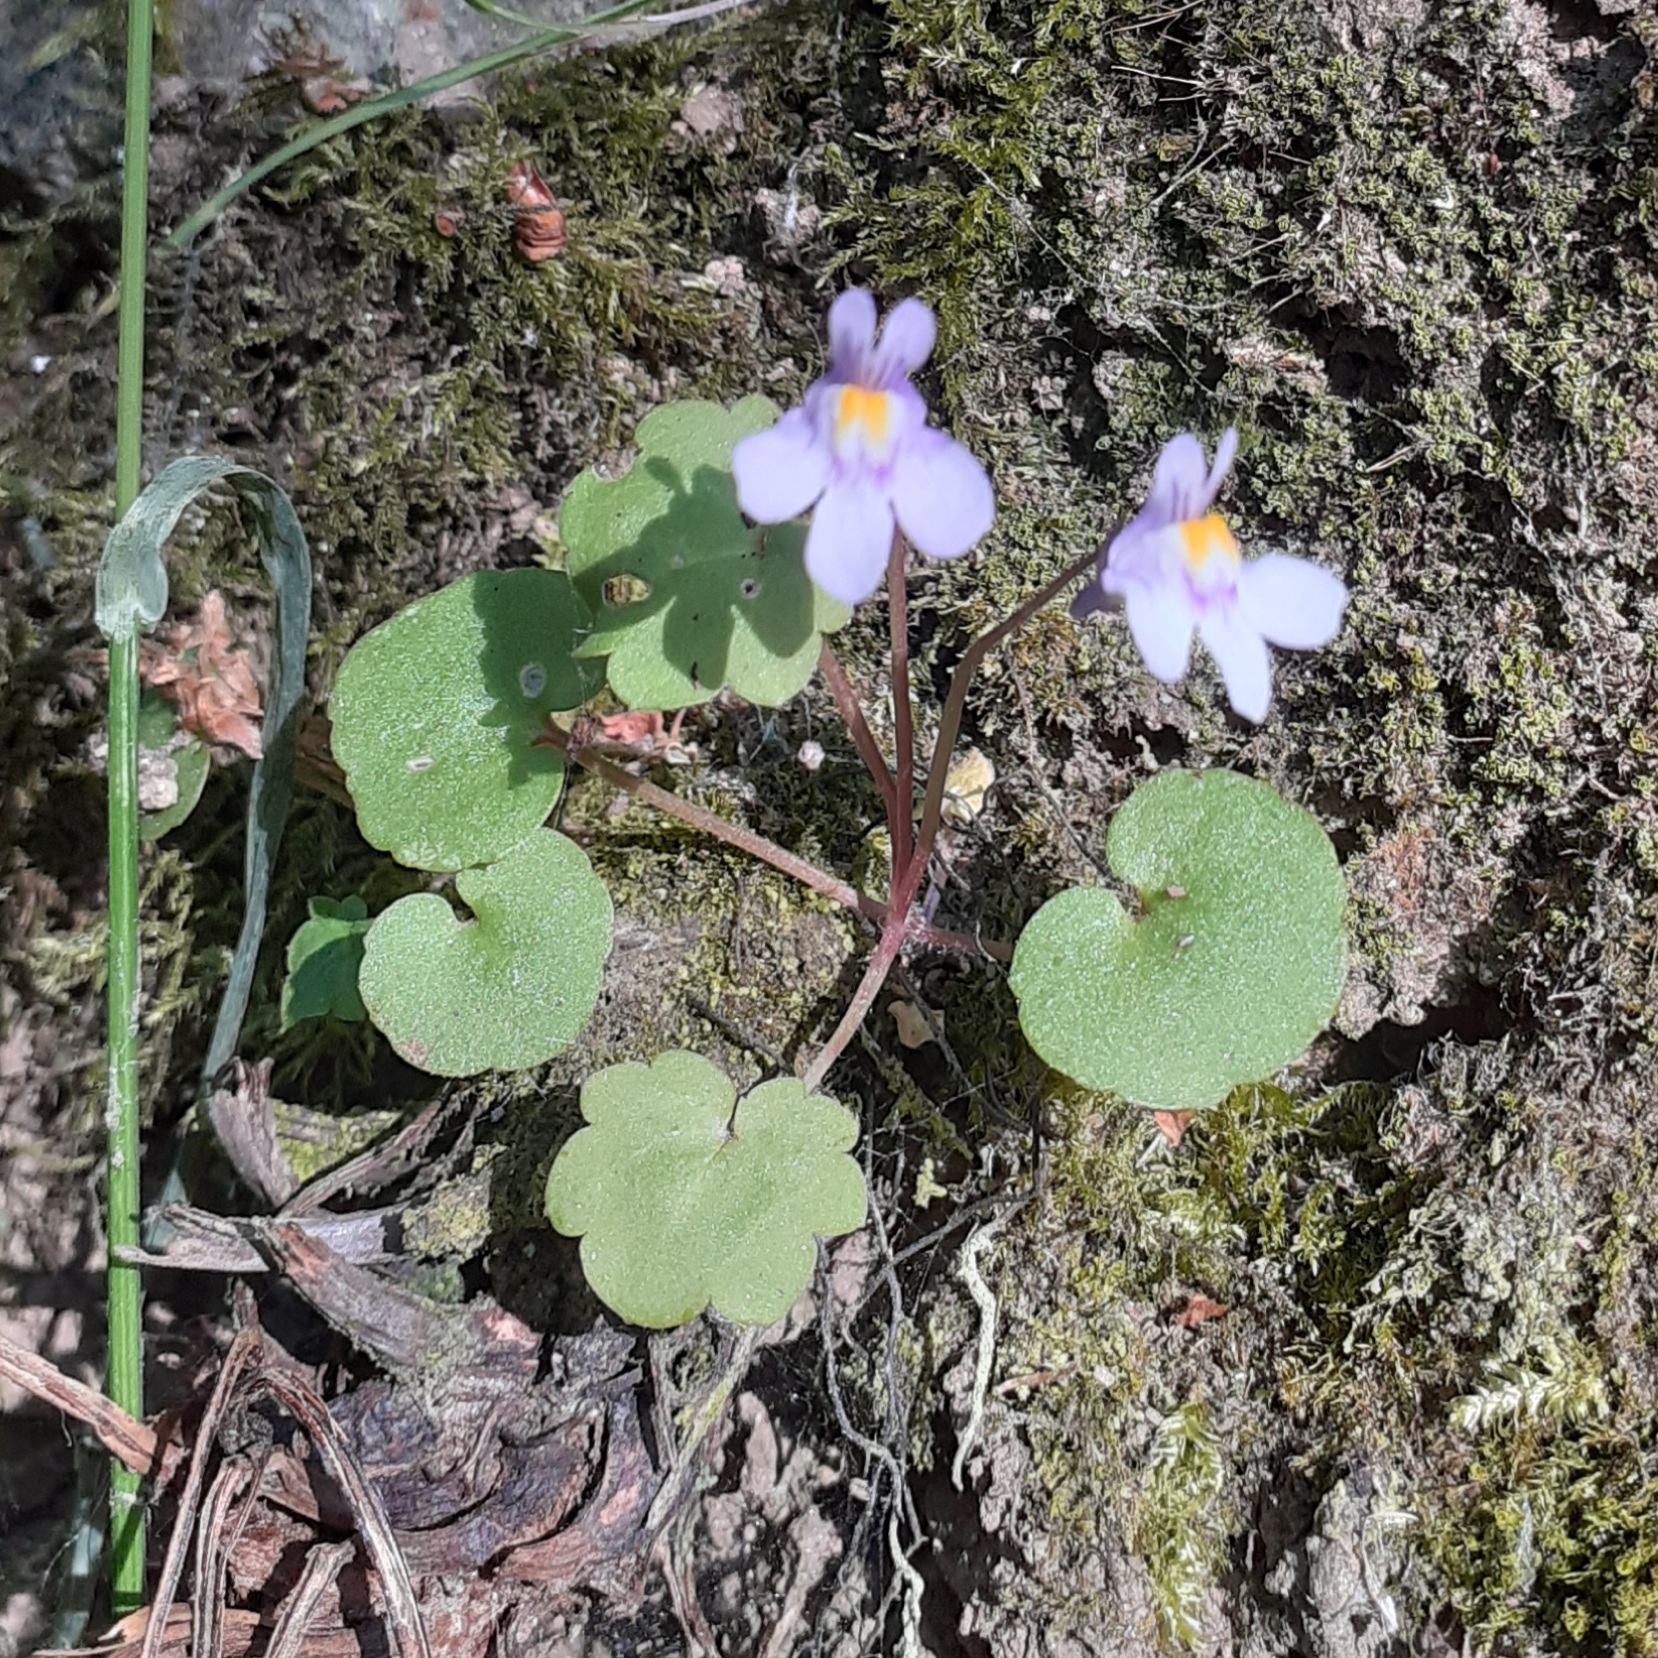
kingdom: Plantae
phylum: Tracheophyta
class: Magnoliopsida
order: Lamiales
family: Plantaginaceae
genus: Cymbalaria
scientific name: Cymbalaria muralis
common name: Ivy-leaved toadflax
